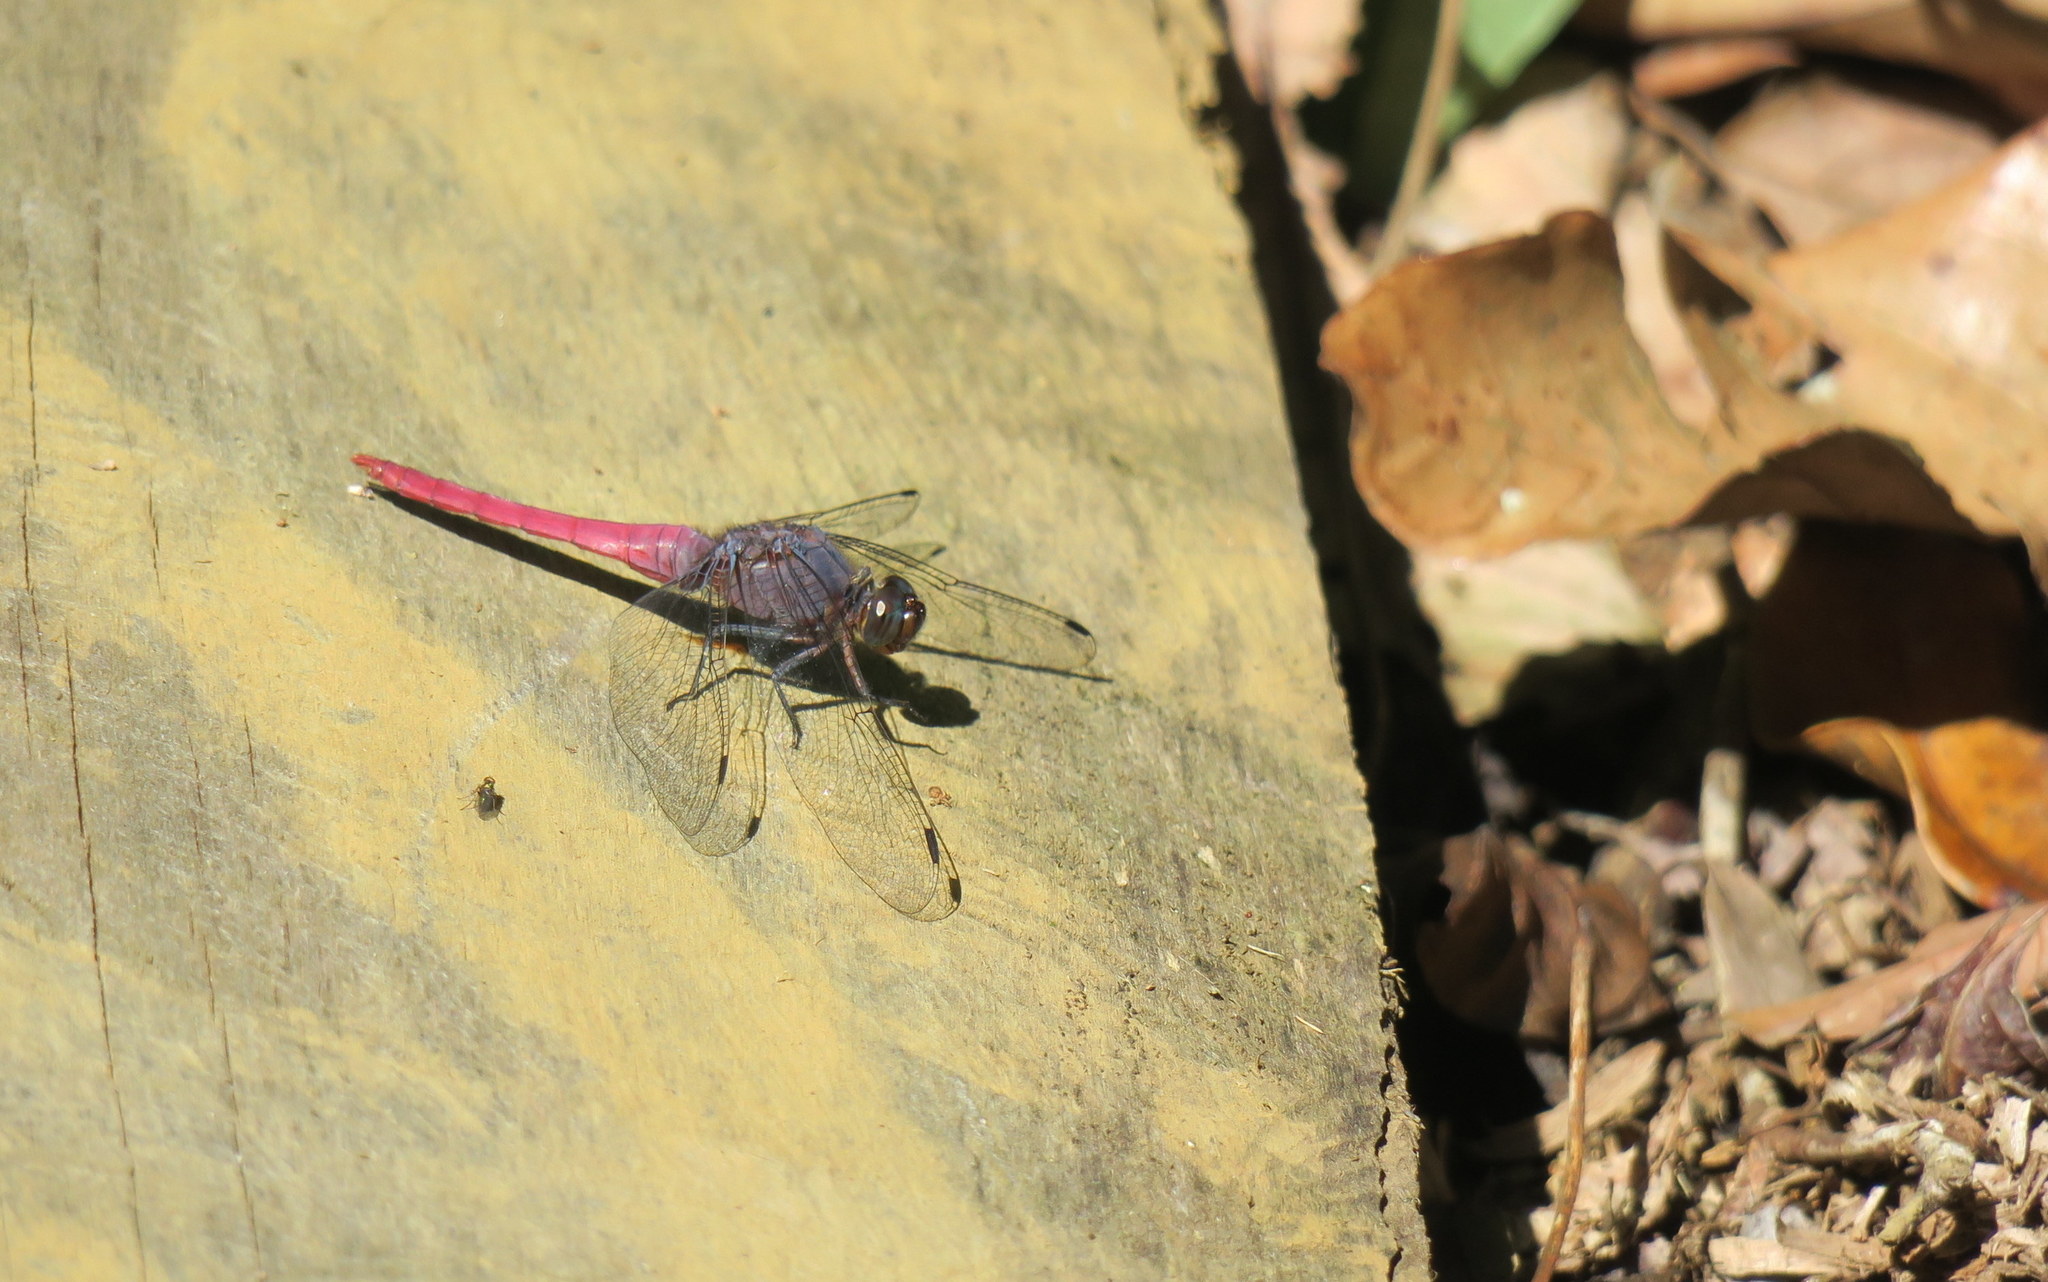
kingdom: Animalia
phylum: Arthropoda
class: Insecta
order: Odonata
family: Libellulidae
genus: Orthetrum
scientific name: Orthetrum pruinosum
